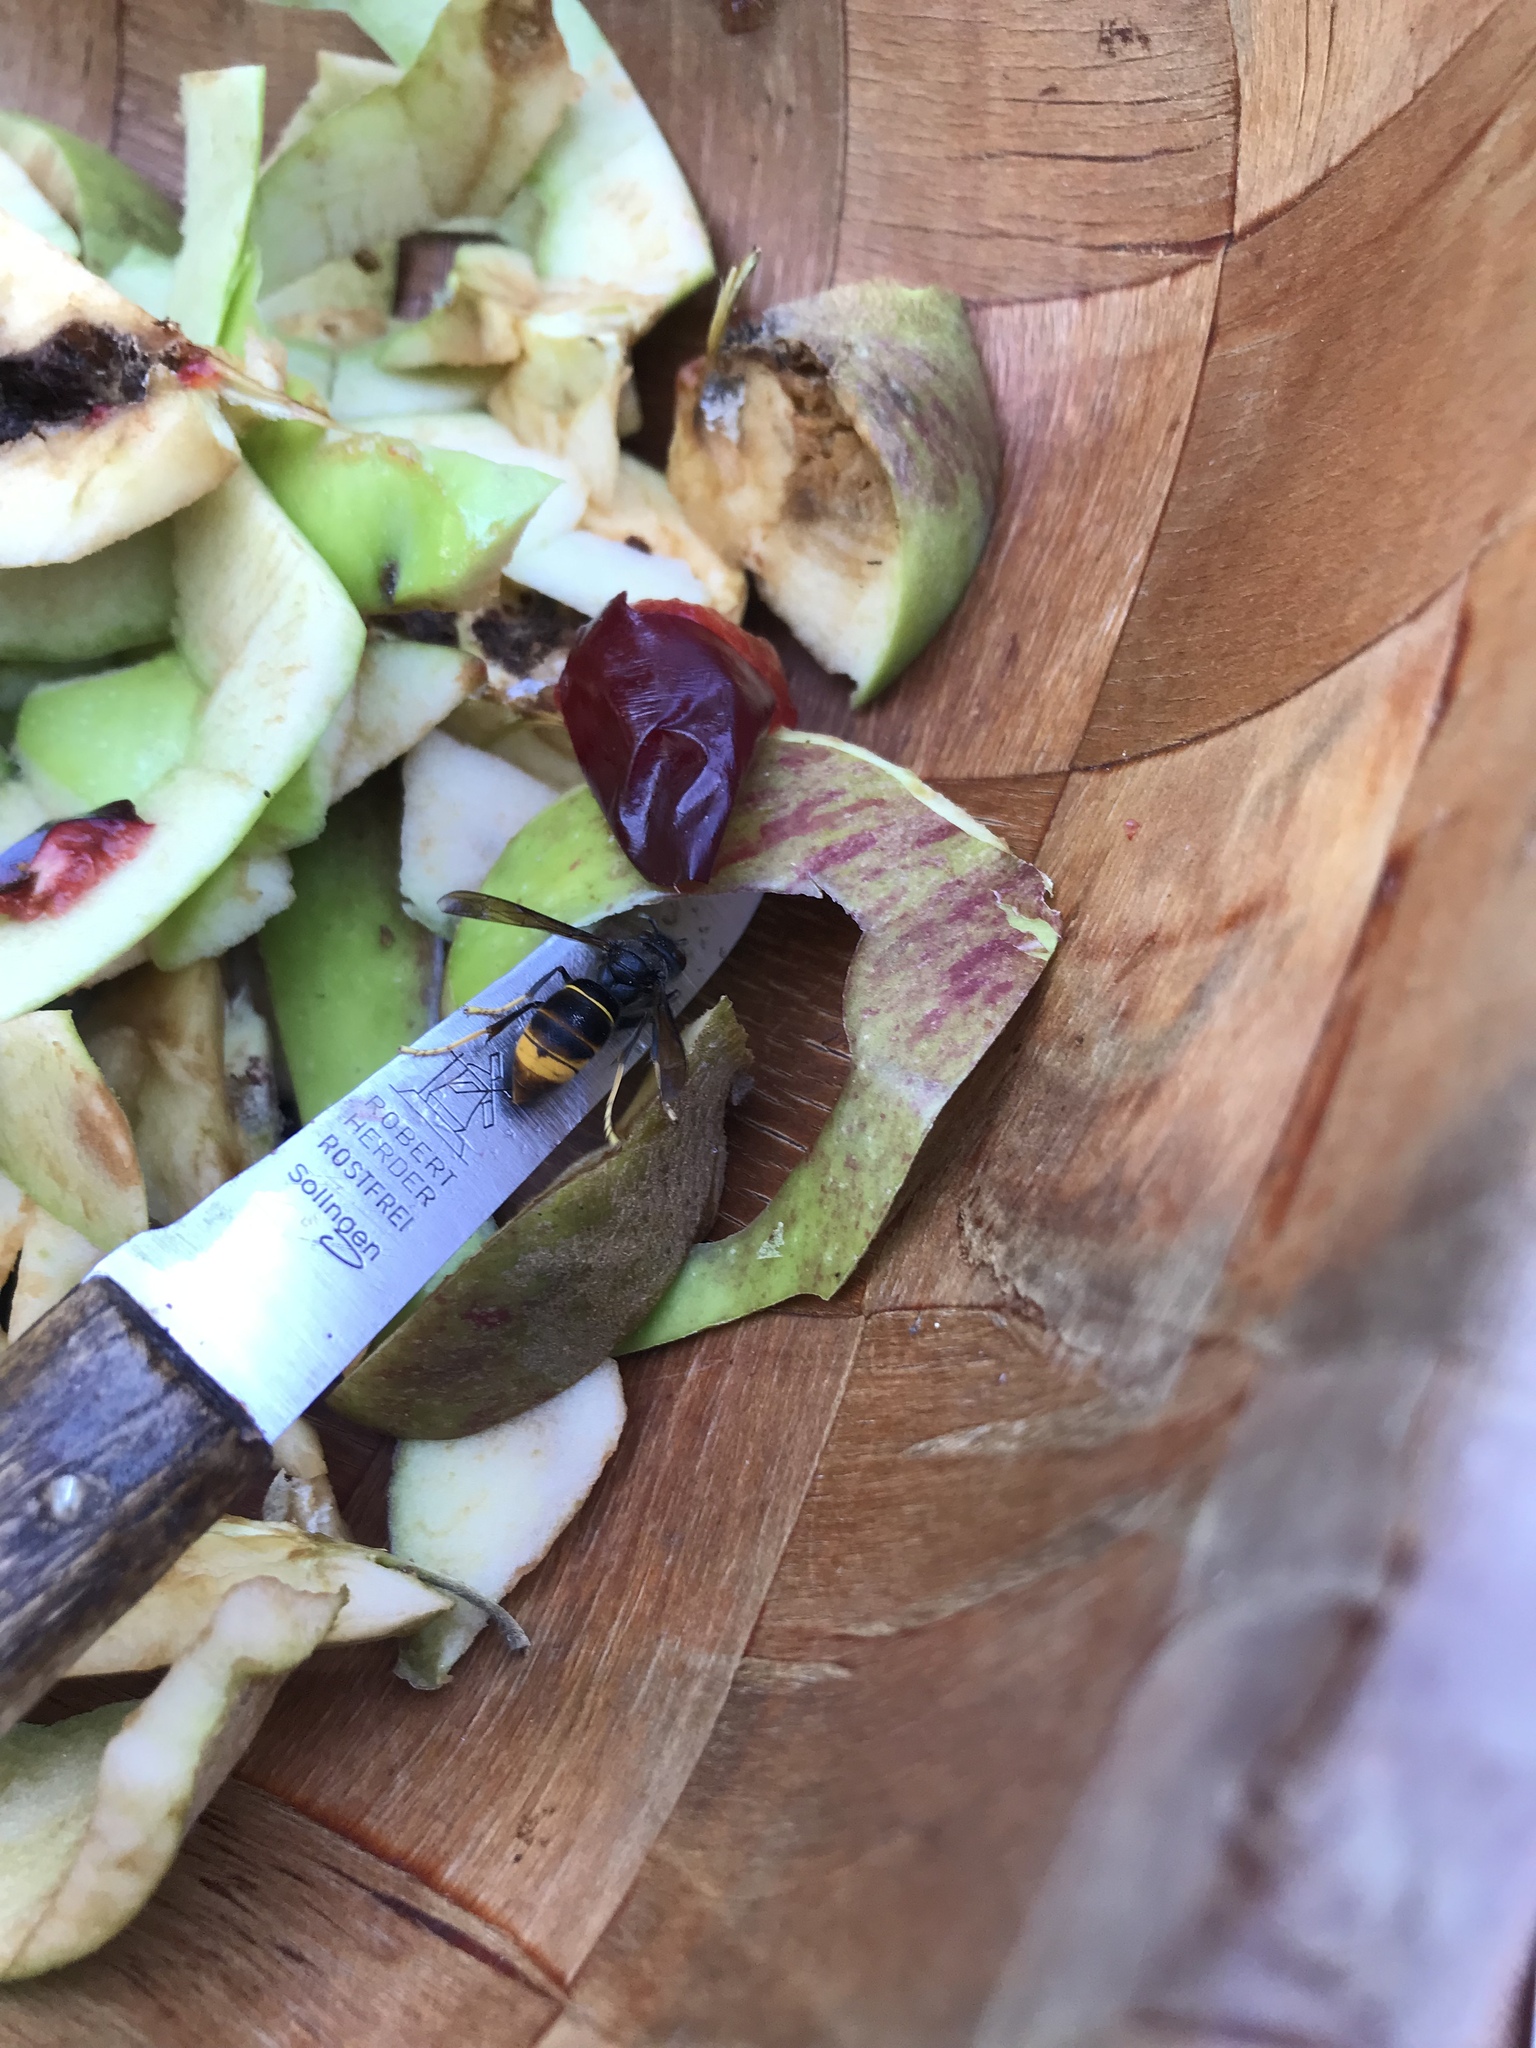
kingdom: Animalia
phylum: Arthropoda
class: Insecta
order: Hymenoptera
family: Vespidae
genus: Vespa
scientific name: Vespa velutina
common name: Asian hornet
